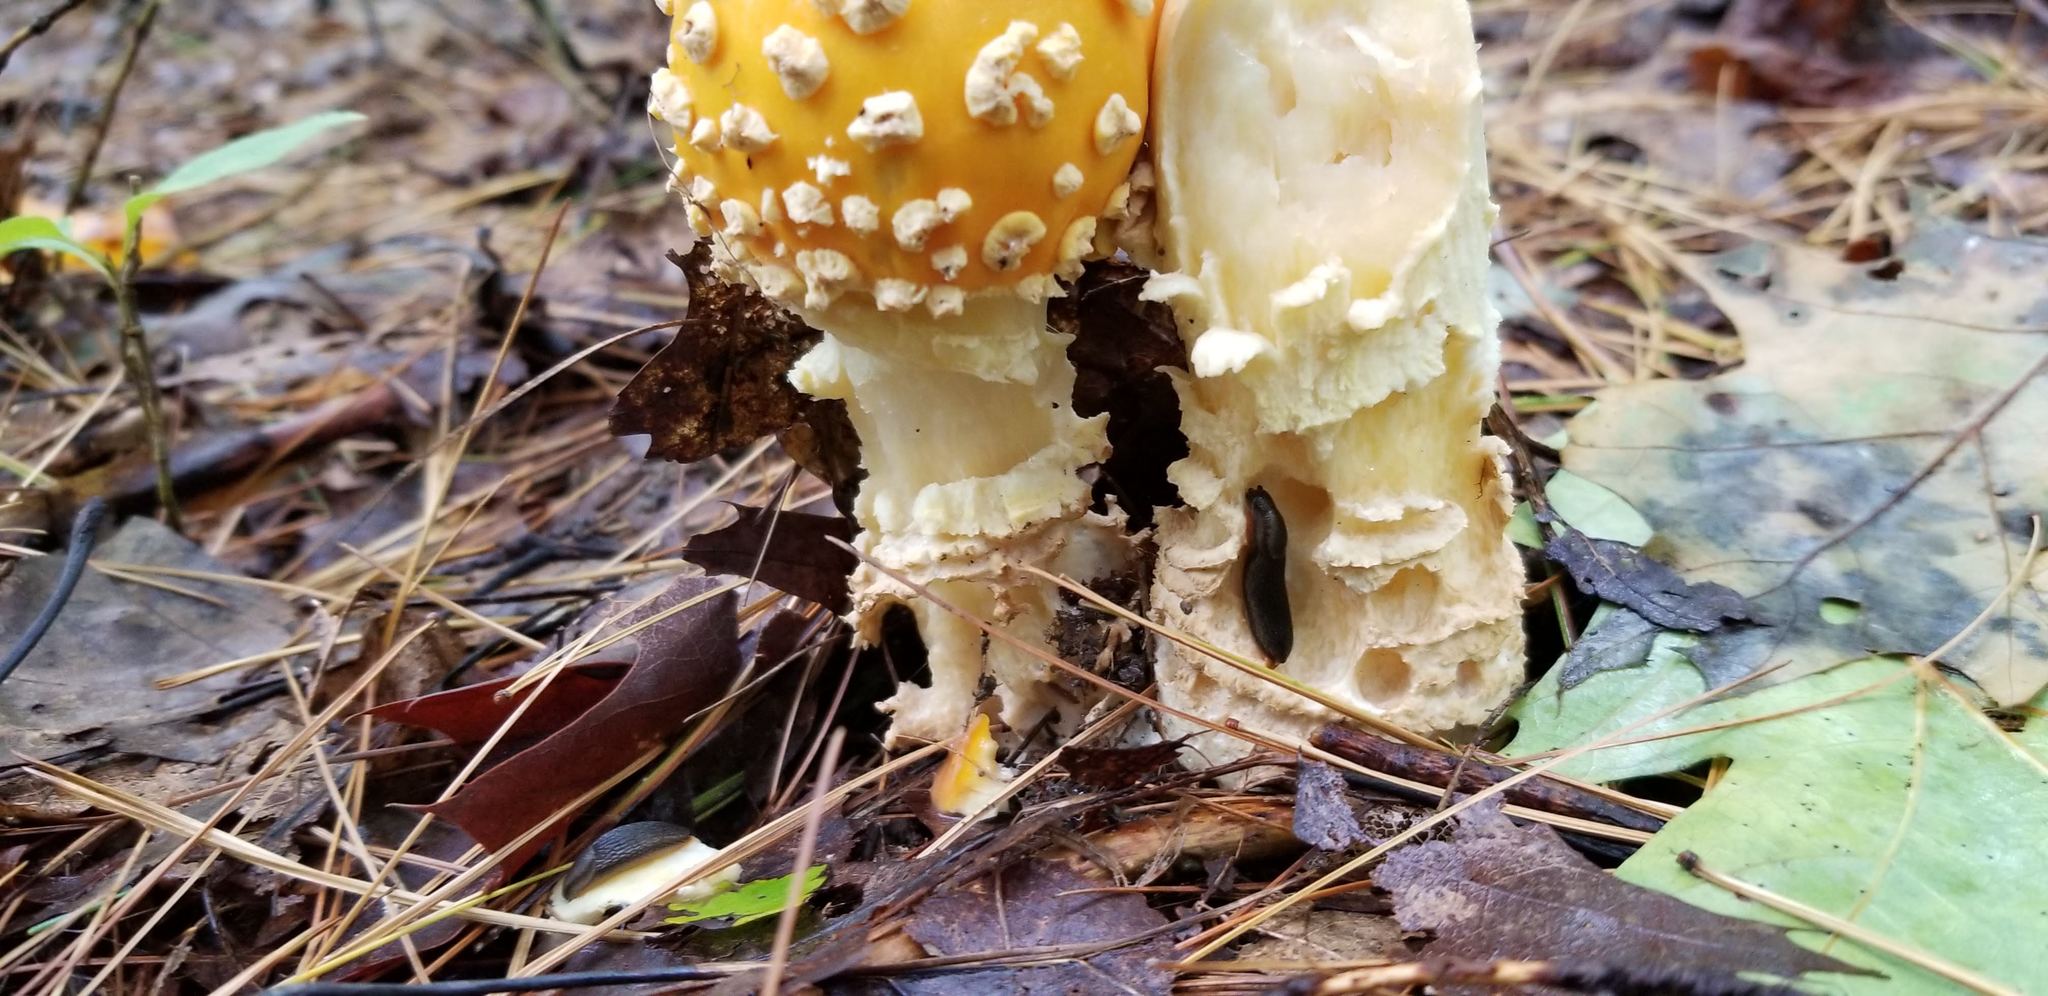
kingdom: Fungi
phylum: Basidiomycota
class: Agaricomycetes
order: Agaricales
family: Amanitaceae
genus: Amanita
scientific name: Amanita muscaria
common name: Fly agaric
